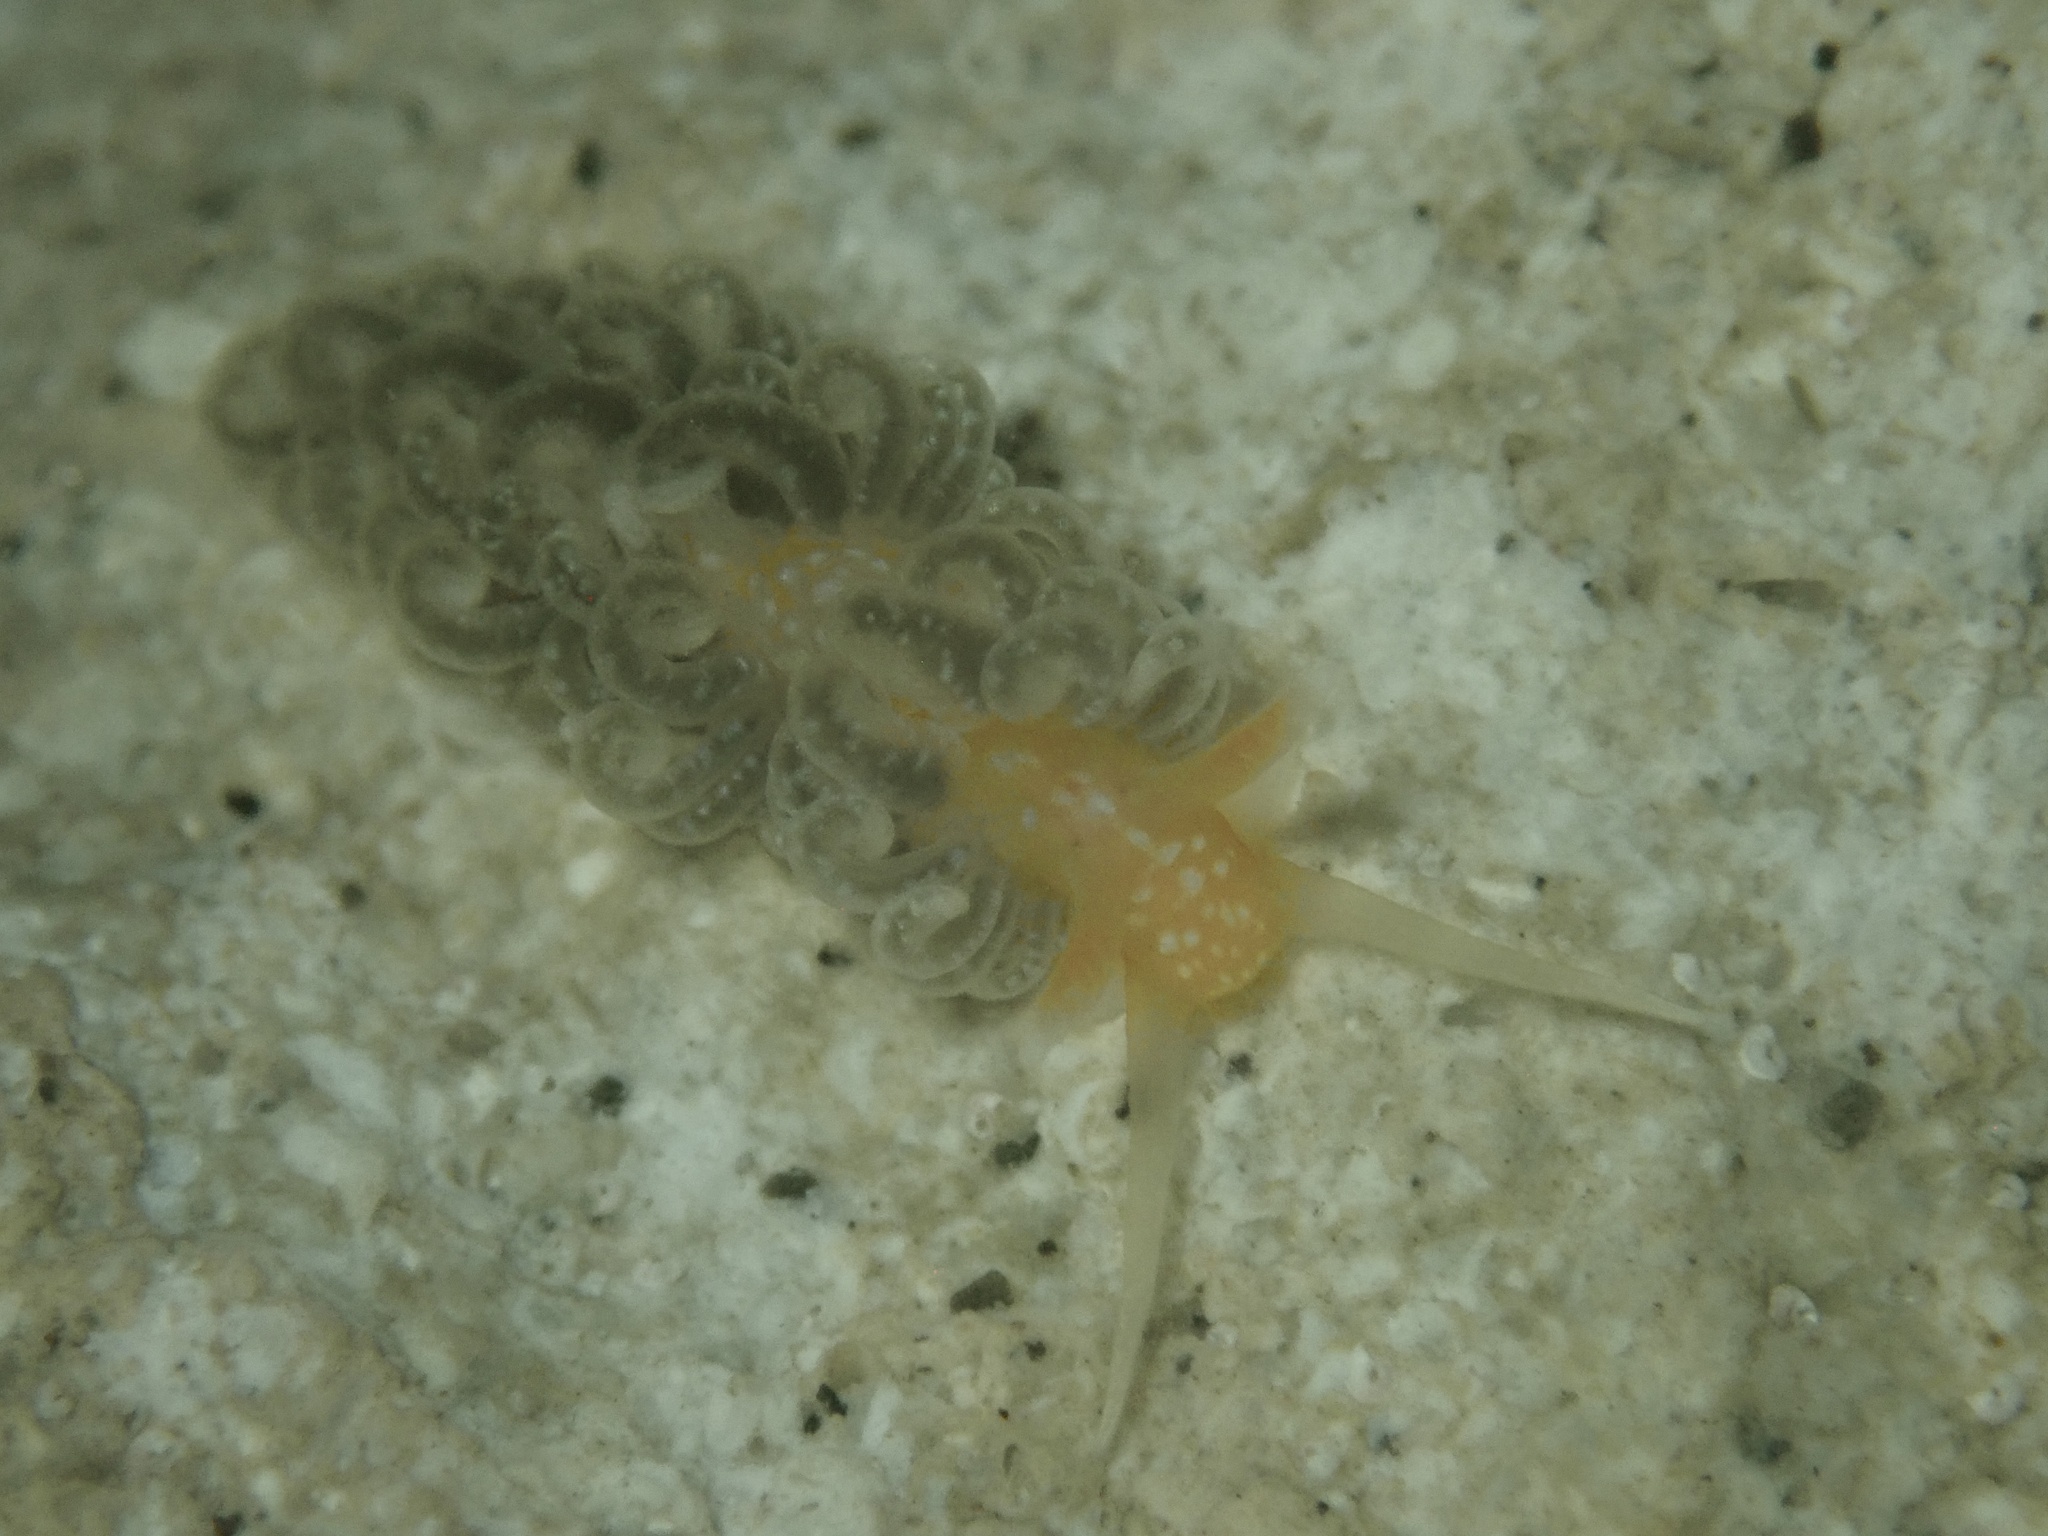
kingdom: Animalia
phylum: Mollusca
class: Gastropoda
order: Nudibranchia
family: Aeolidiidae
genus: Spurilla
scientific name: Spurilla braziliana
